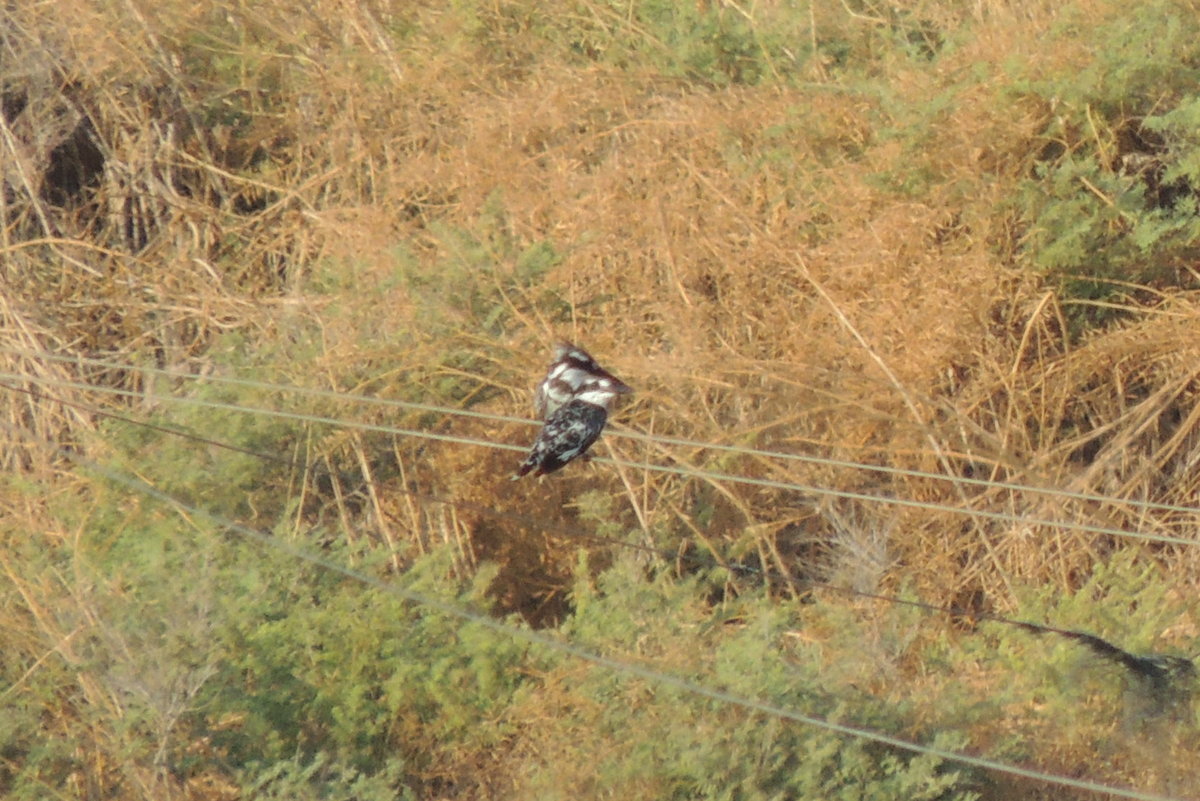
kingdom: Animalia
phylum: Chordata
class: Aves
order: Coraciiformes
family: Alcedinidae
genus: Ceryle
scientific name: Ceryle rudis
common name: Pied kingfisher
